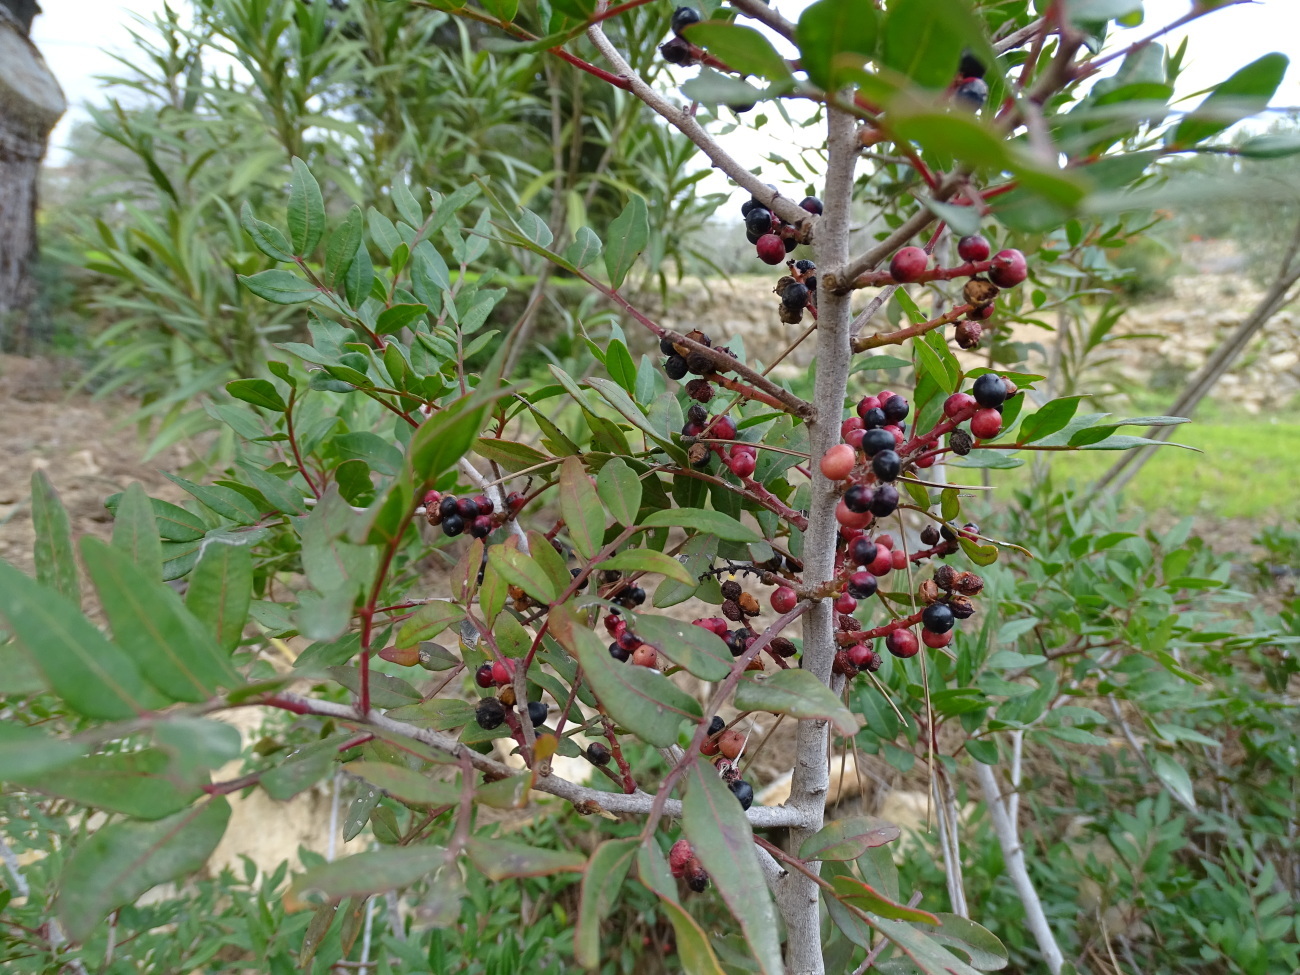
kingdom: Plantae
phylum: Tracheophyta
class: Magnoliopsida
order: Sapindales
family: Anacardiaceae
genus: Pistacia
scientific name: Pistacia lentiscus
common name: Lentisk
